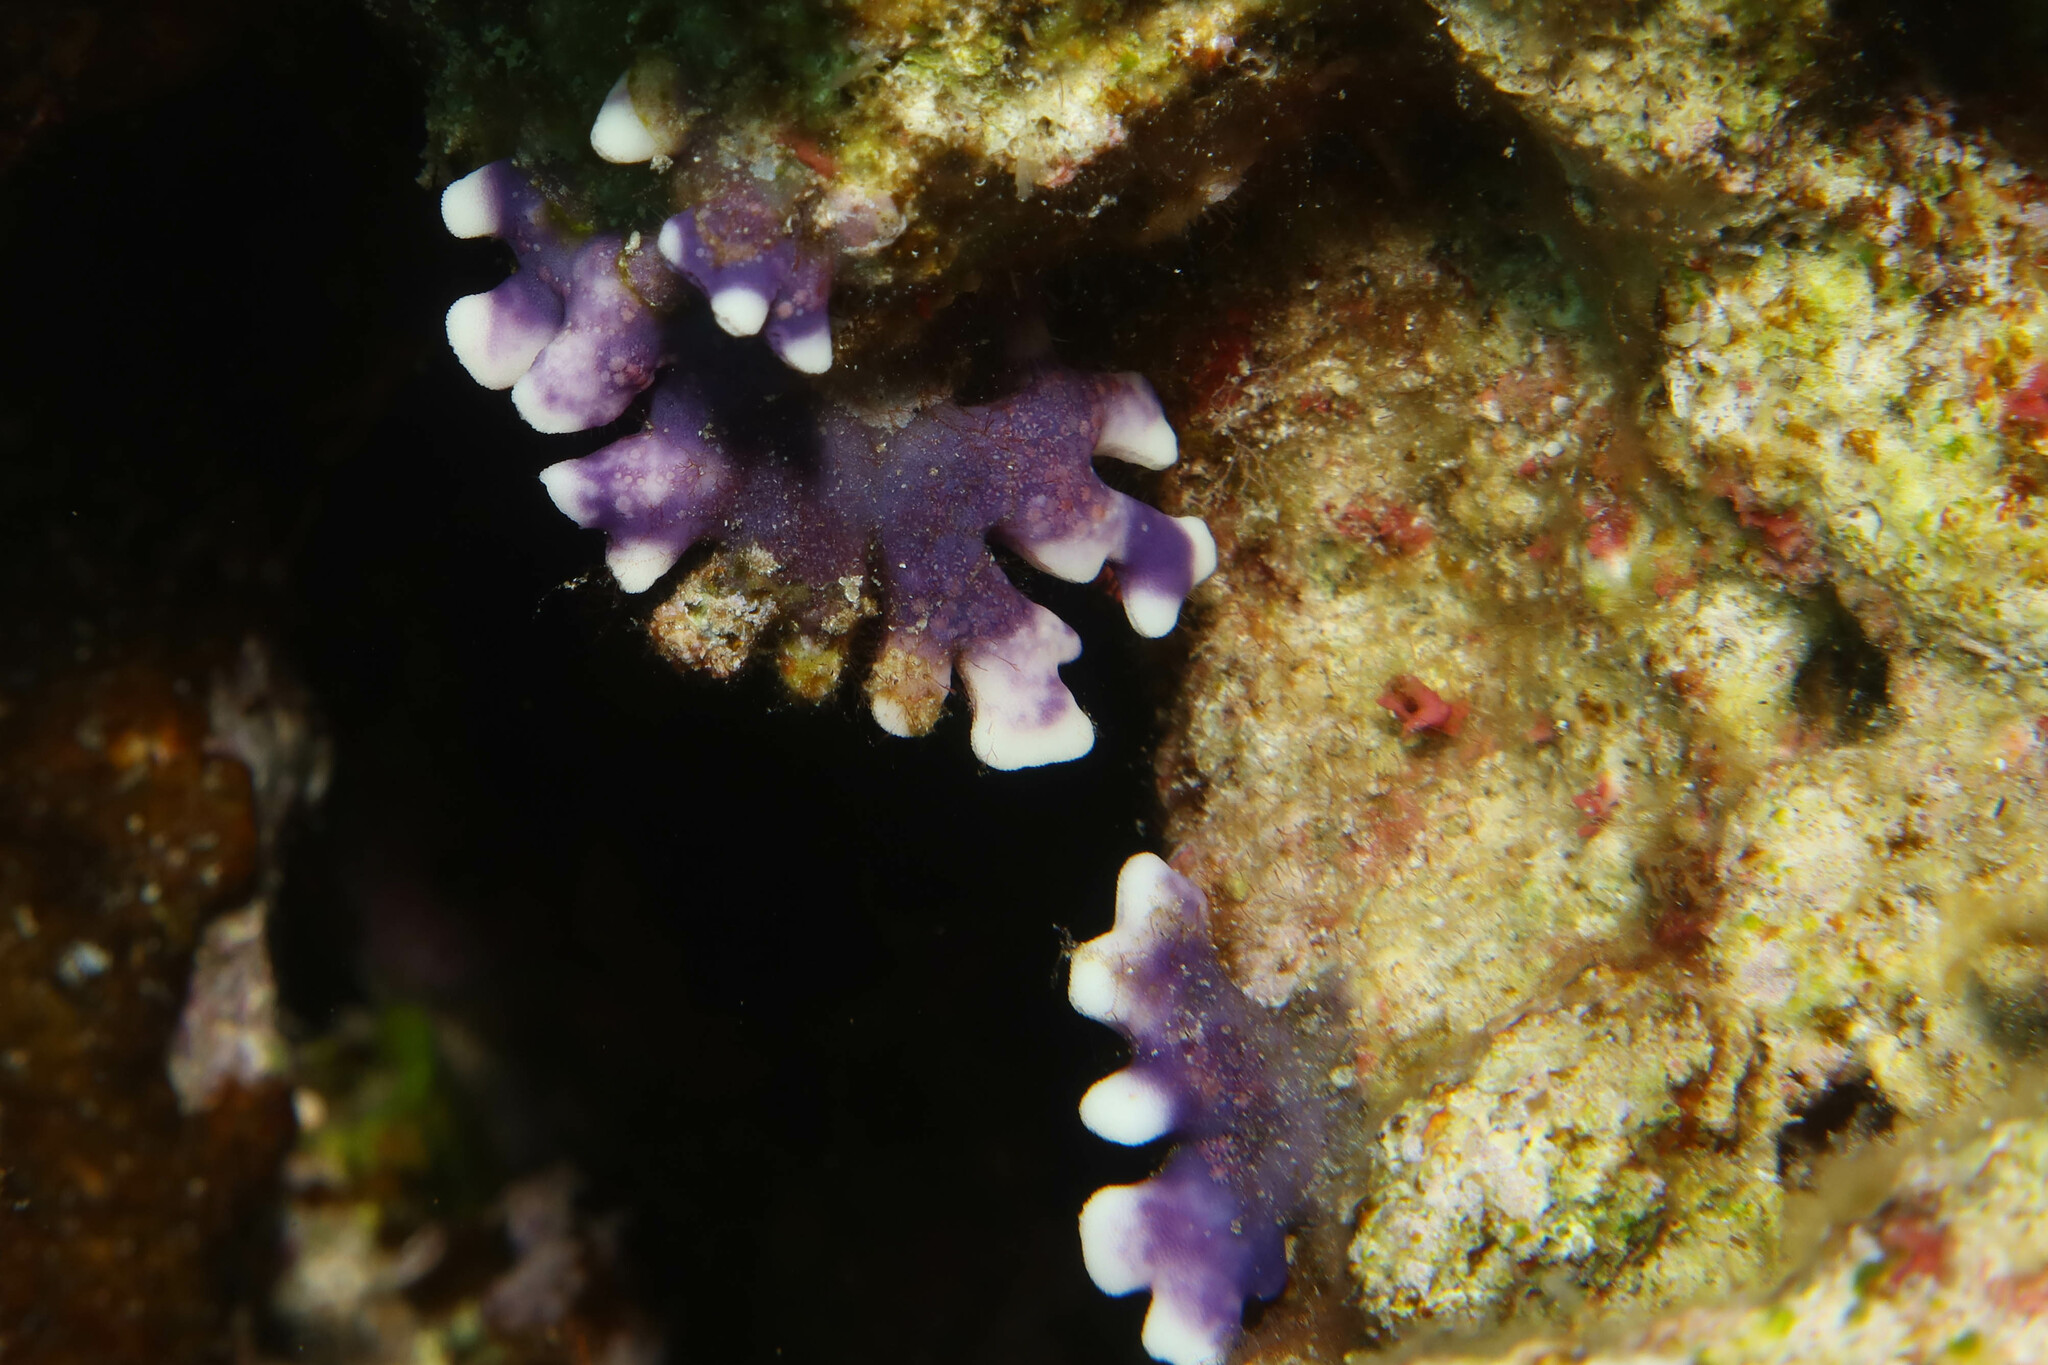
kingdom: Animalia
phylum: Cnidaria
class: Hydrozoa
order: Anthoathecata
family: Stylasteridae
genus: Distichopora
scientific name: Distichopora violacea
